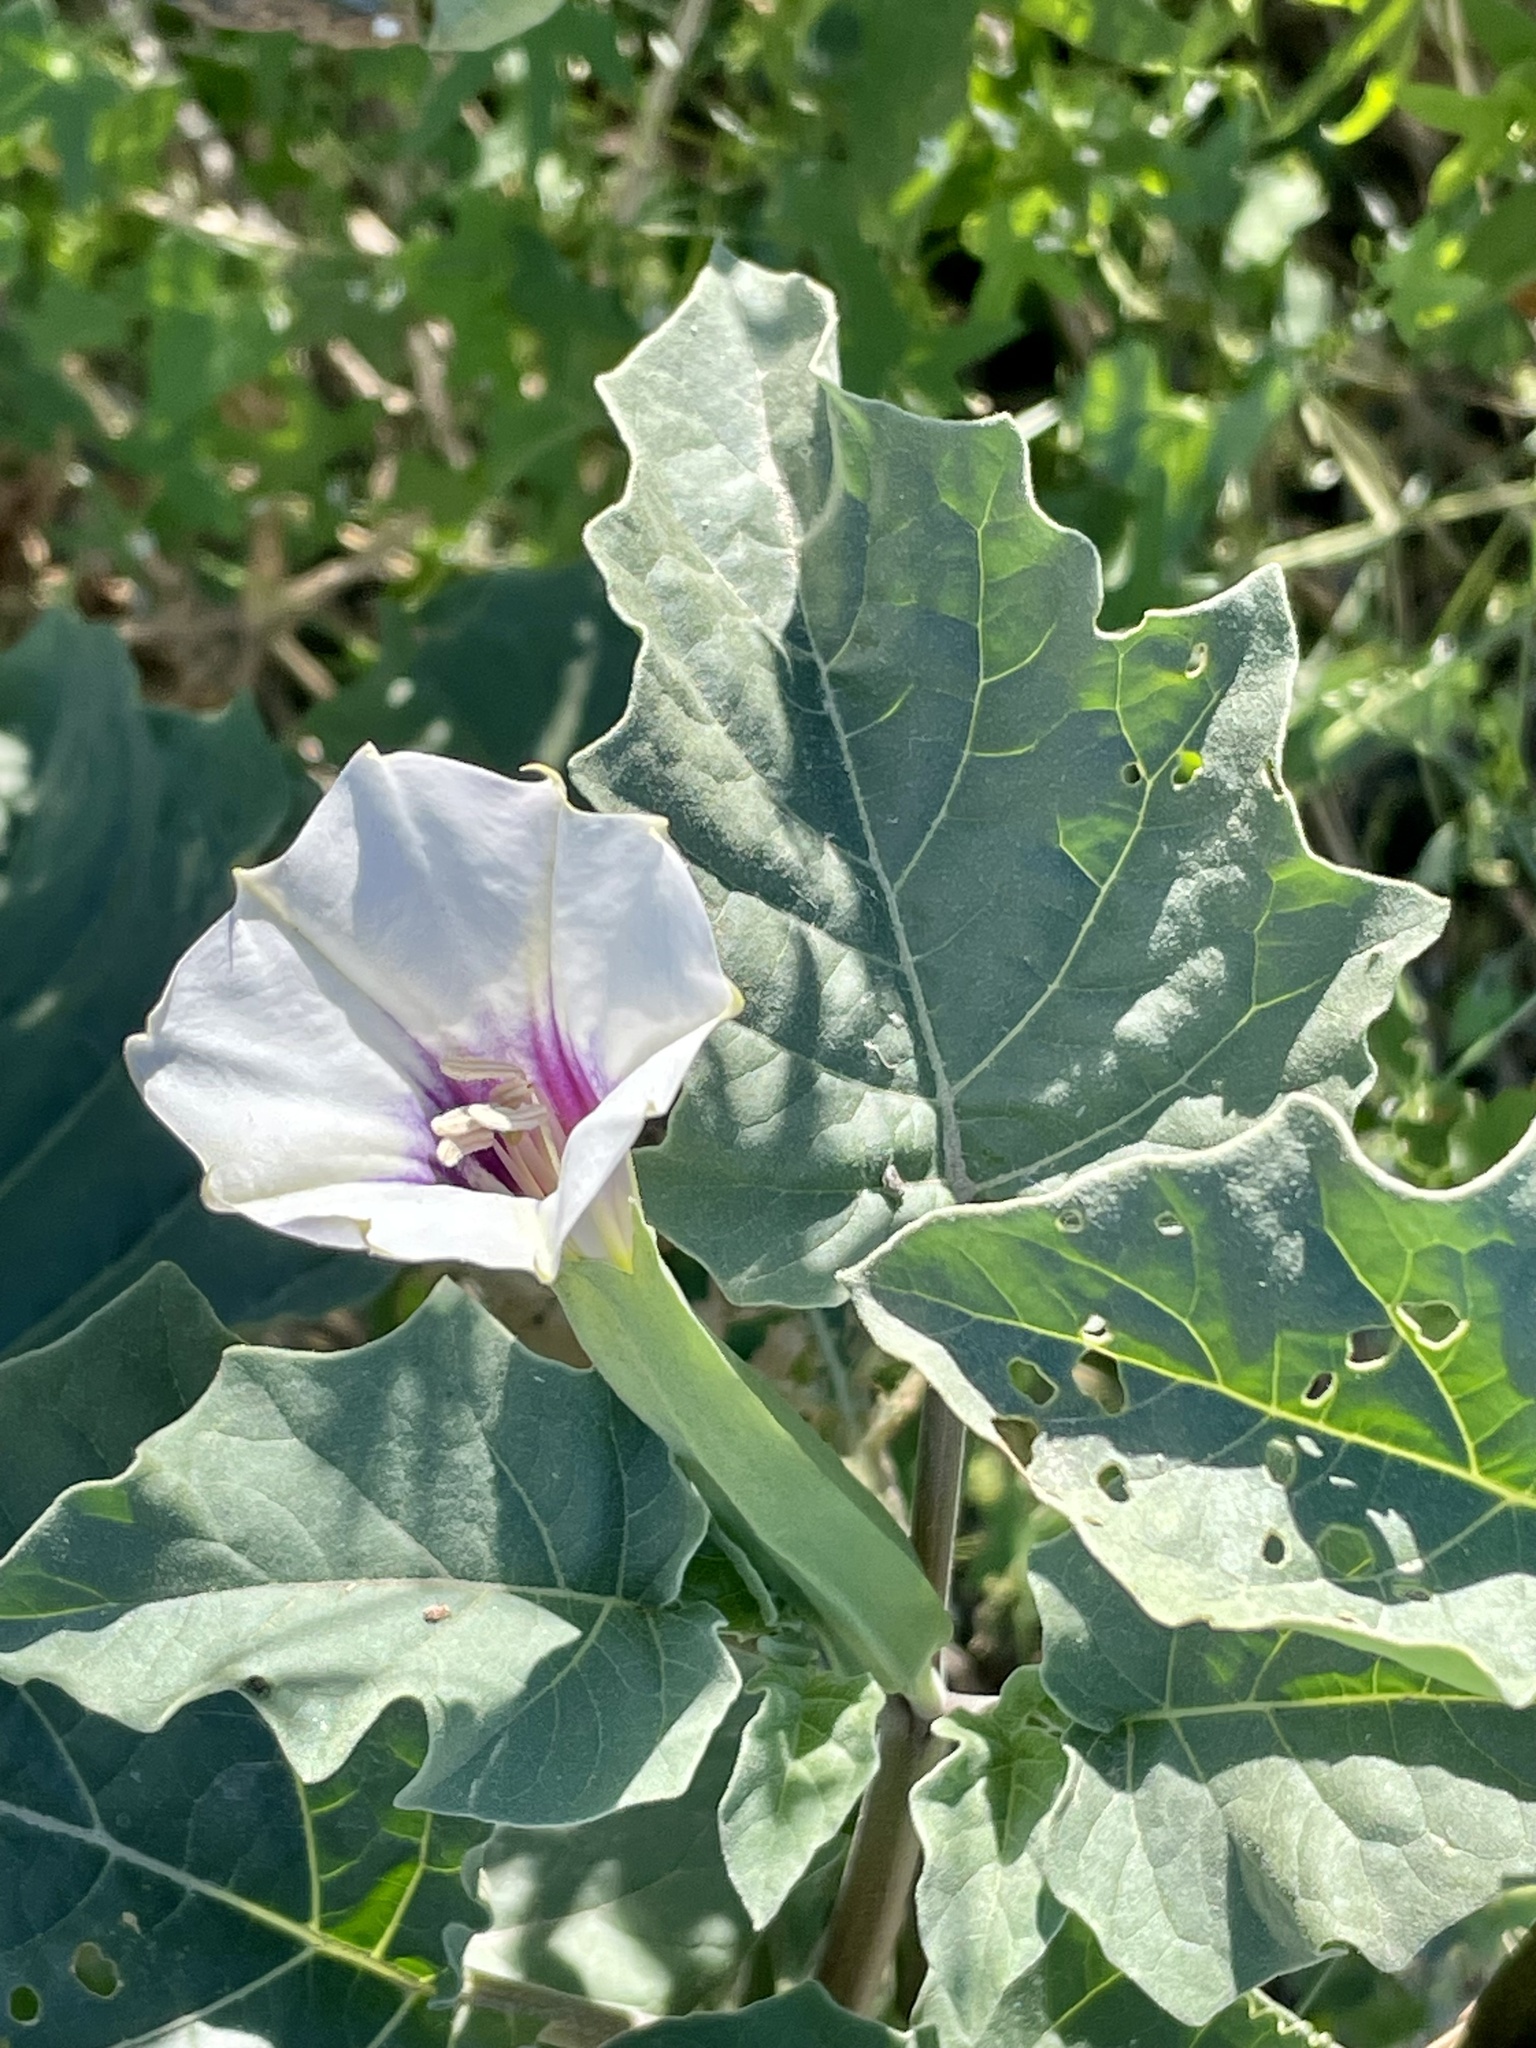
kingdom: Plantae
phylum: Tracheophyta
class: Magnoliopsida
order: Solanales
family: Solanaceae
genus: Datura
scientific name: Datura discolor
